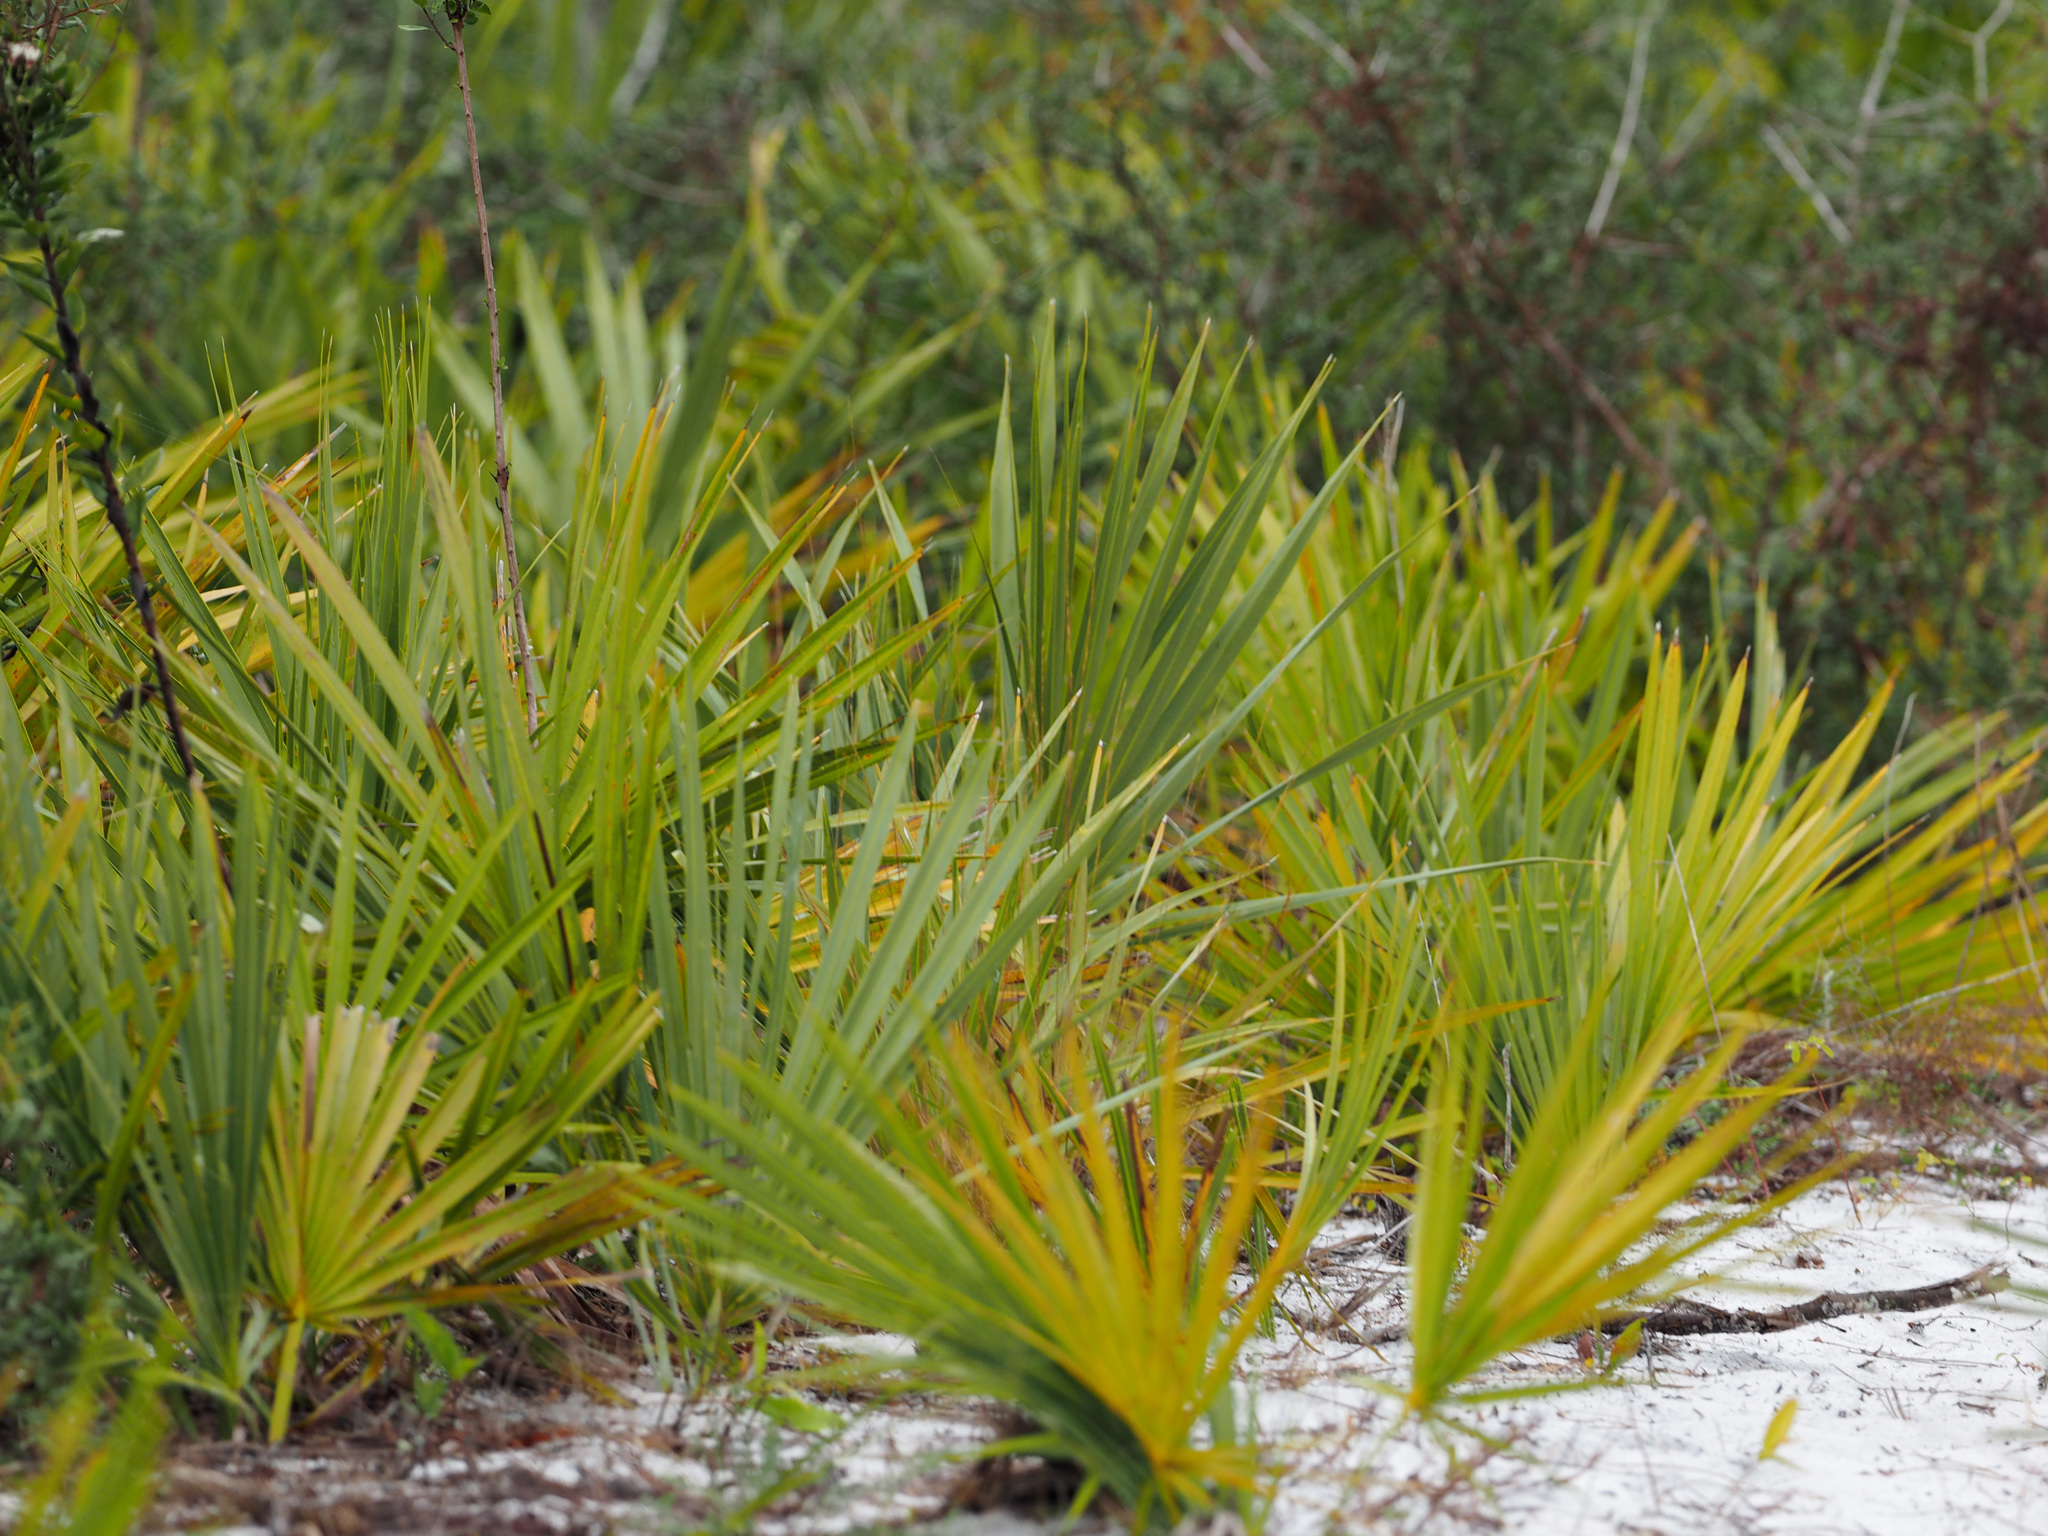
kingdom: Plantae
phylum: Tracheophyta
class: Liliopsida
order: Arecales
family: Arecaceae
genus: Serenoa
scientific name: Serenoa repens
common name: Saw-palmetto
